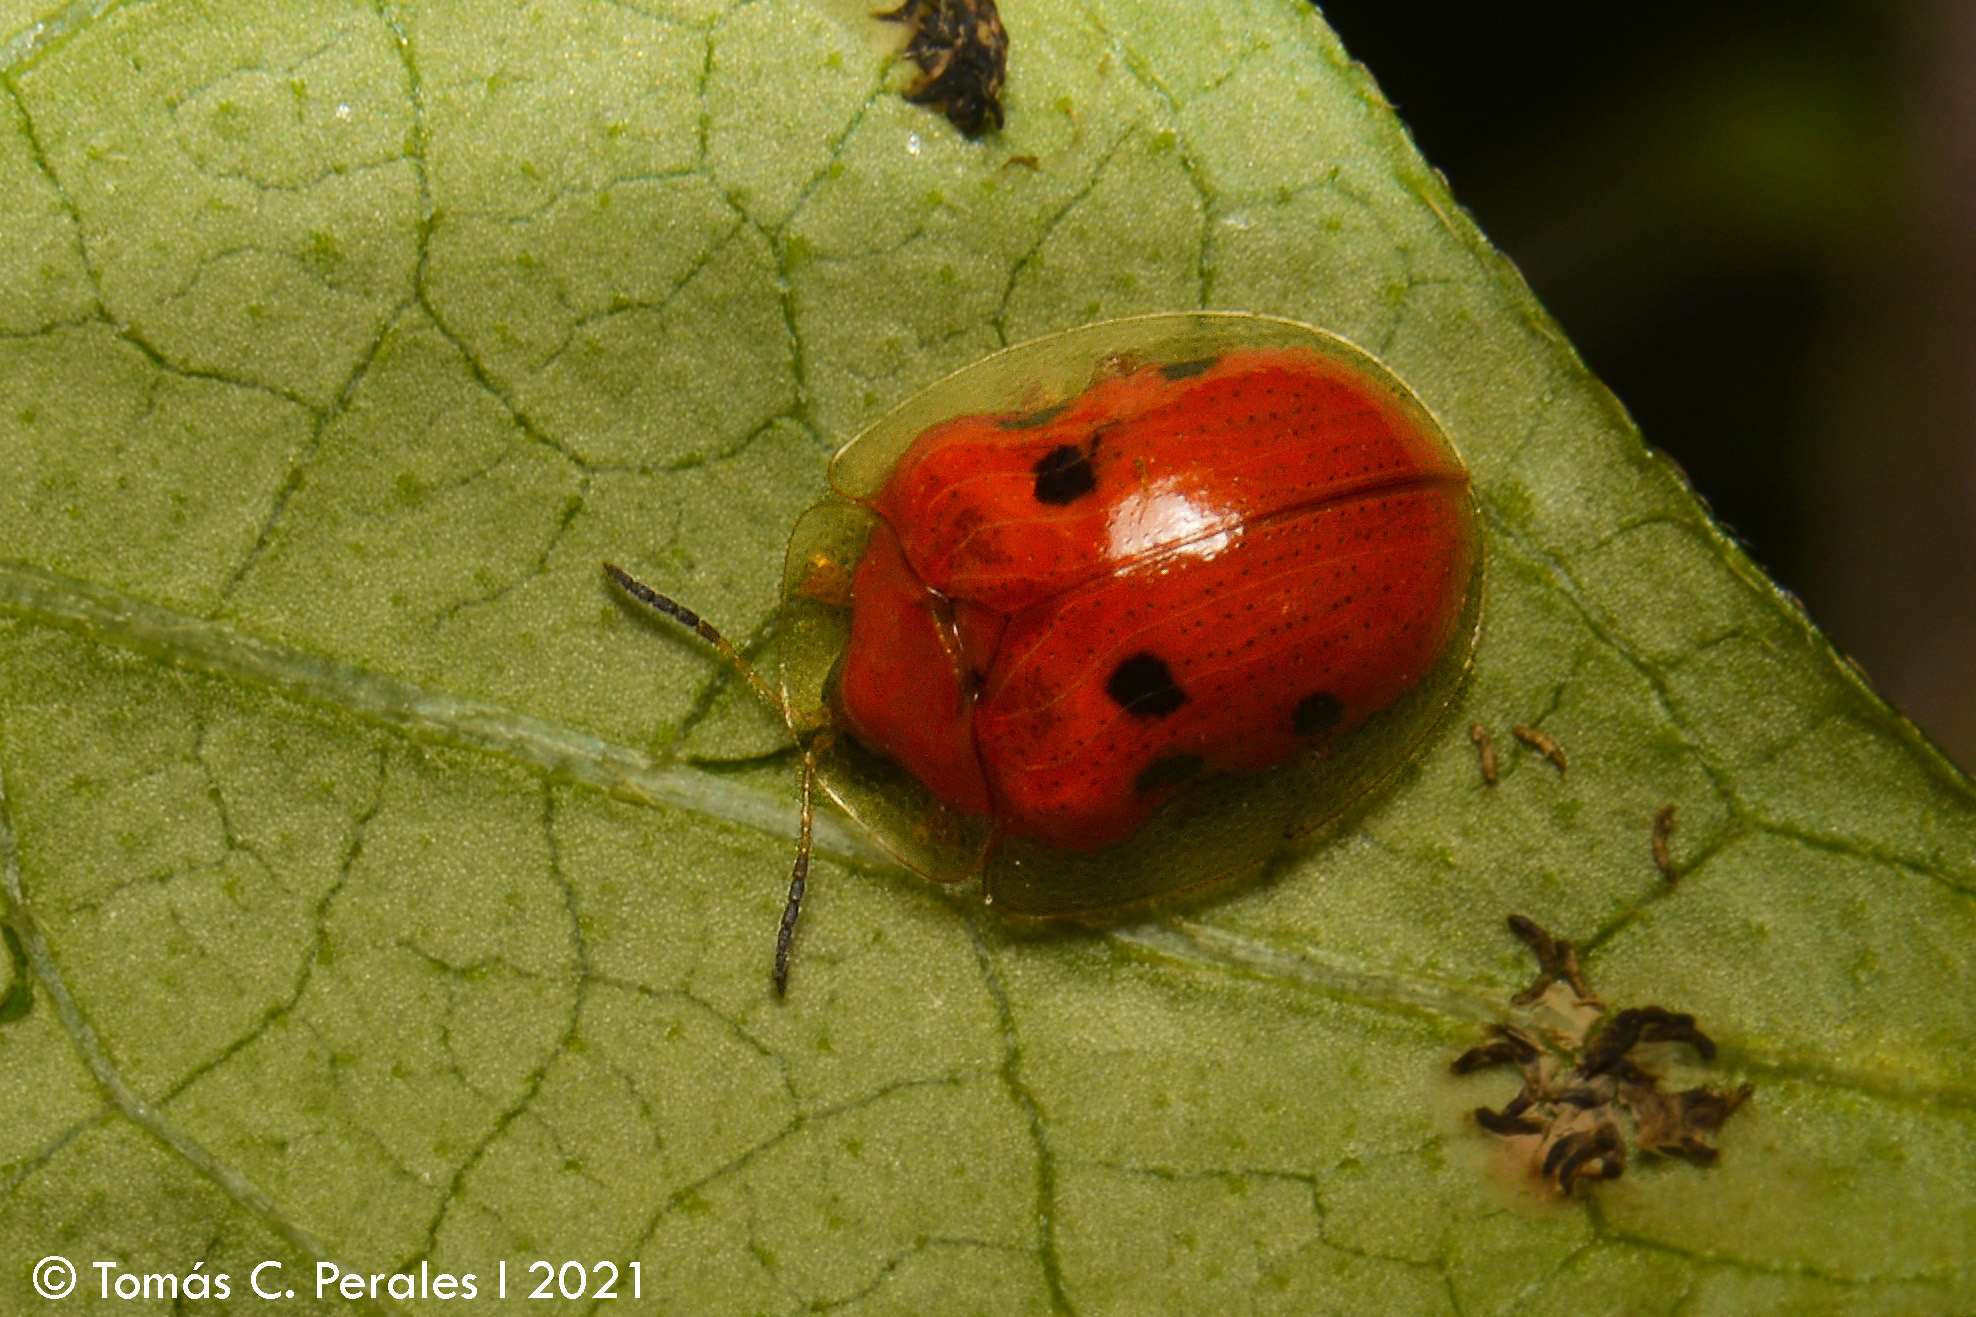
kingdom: Animalia
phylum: Arthropoda
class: Insecta
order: Coleoptera
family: Chrysomelidae
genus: Charidotella
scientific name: Charidotella sexpunctata
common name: Golden tortoise beetle
